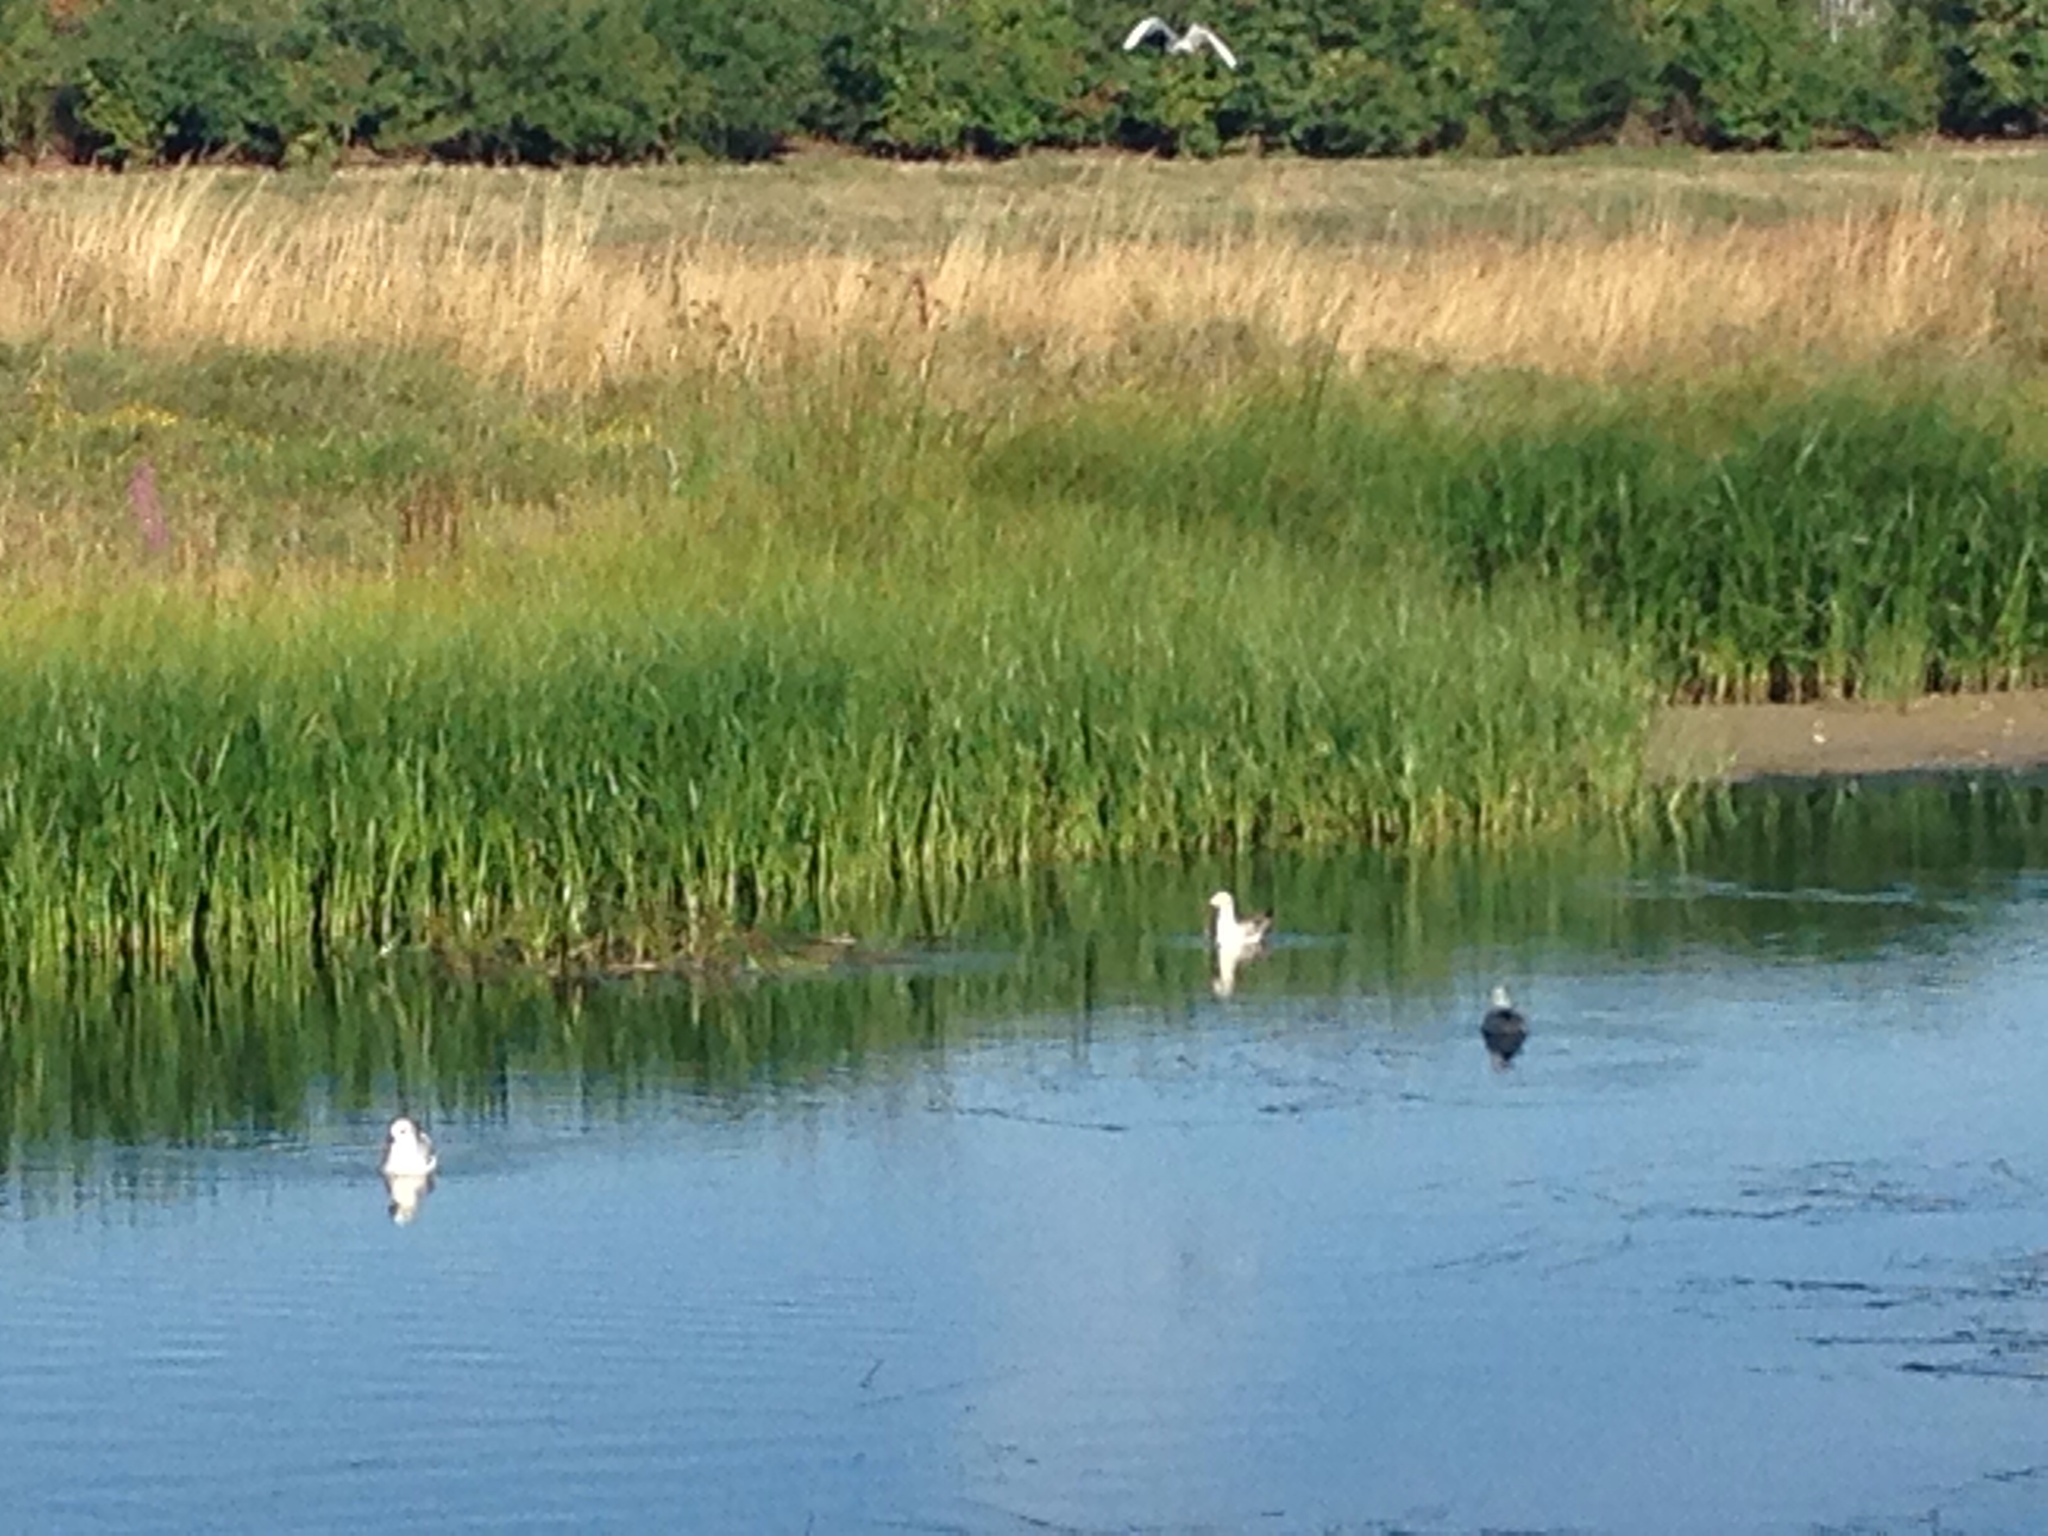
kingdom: Animalia
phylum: Chordata
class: Aves
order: Charadriiformes
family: Laridae
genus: Chroicocephalus
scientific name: Chroicocephalus ridibundus
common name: Black-headed gull
